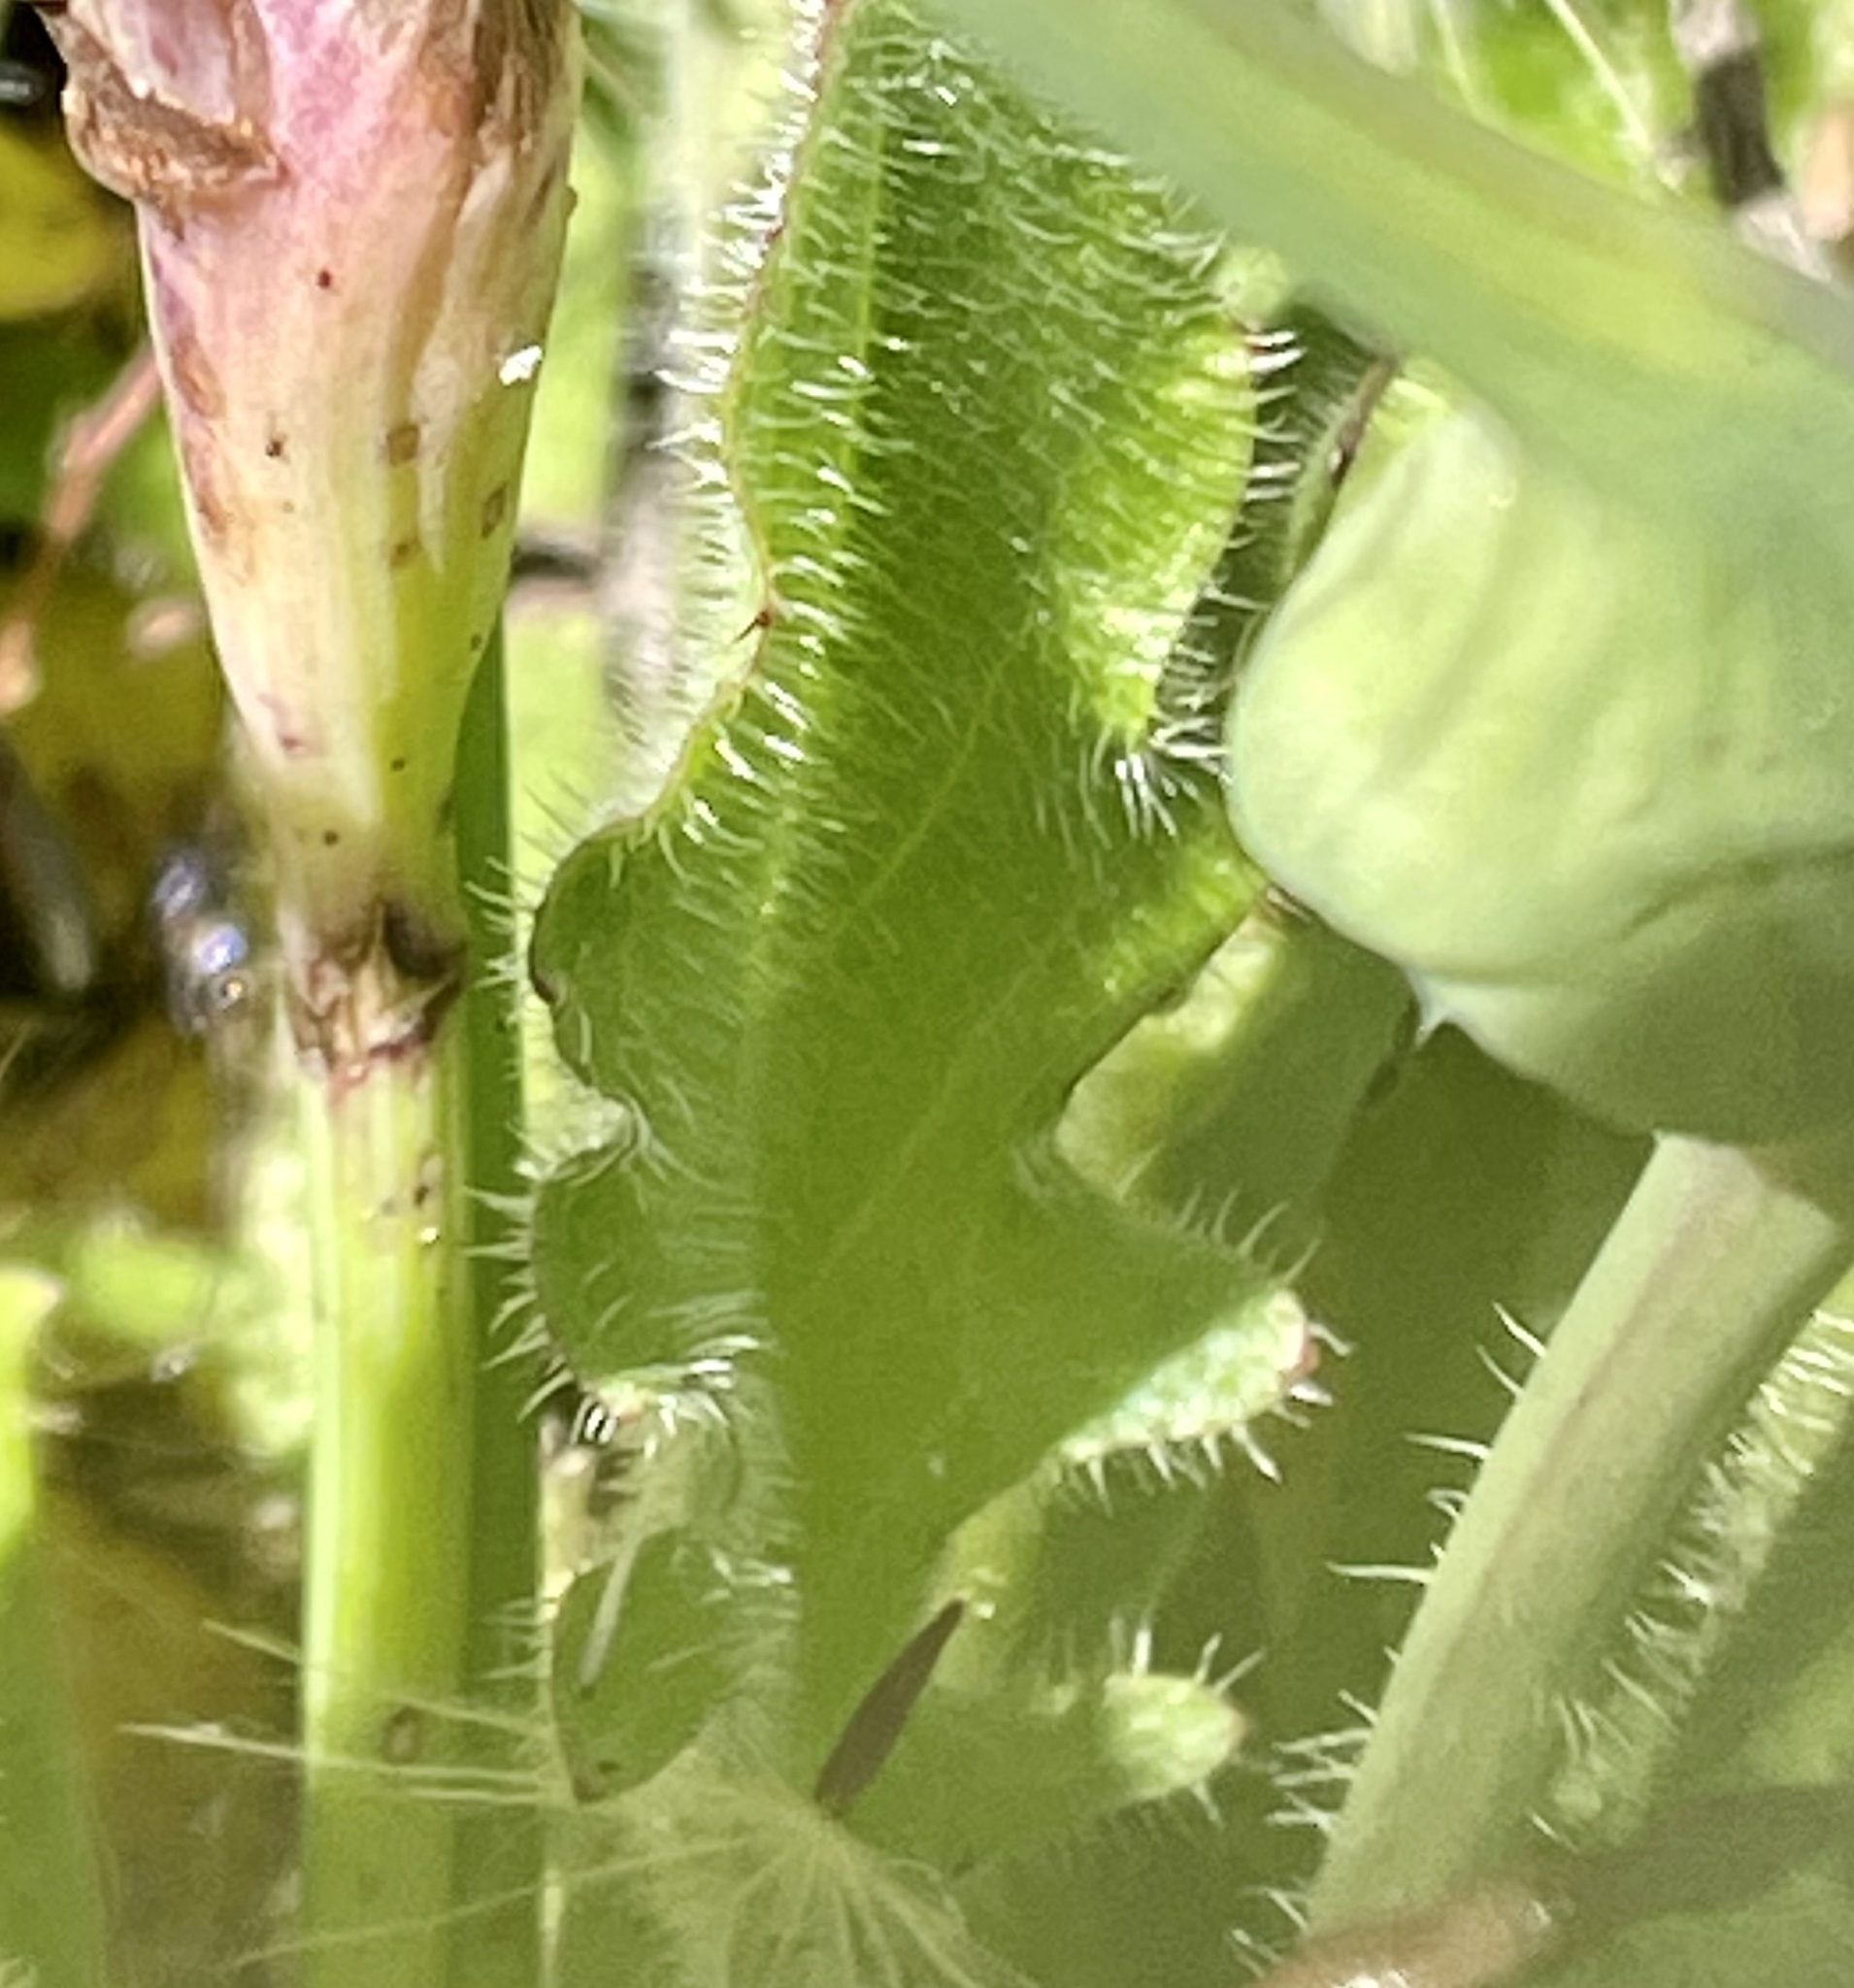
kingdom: Plantae
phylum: Tracheophyta
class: Magnoliopsida
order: Asterales
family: Asteraceae
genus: Hypochaeris
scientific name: Hypochaeris radicata
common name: Flatweed
